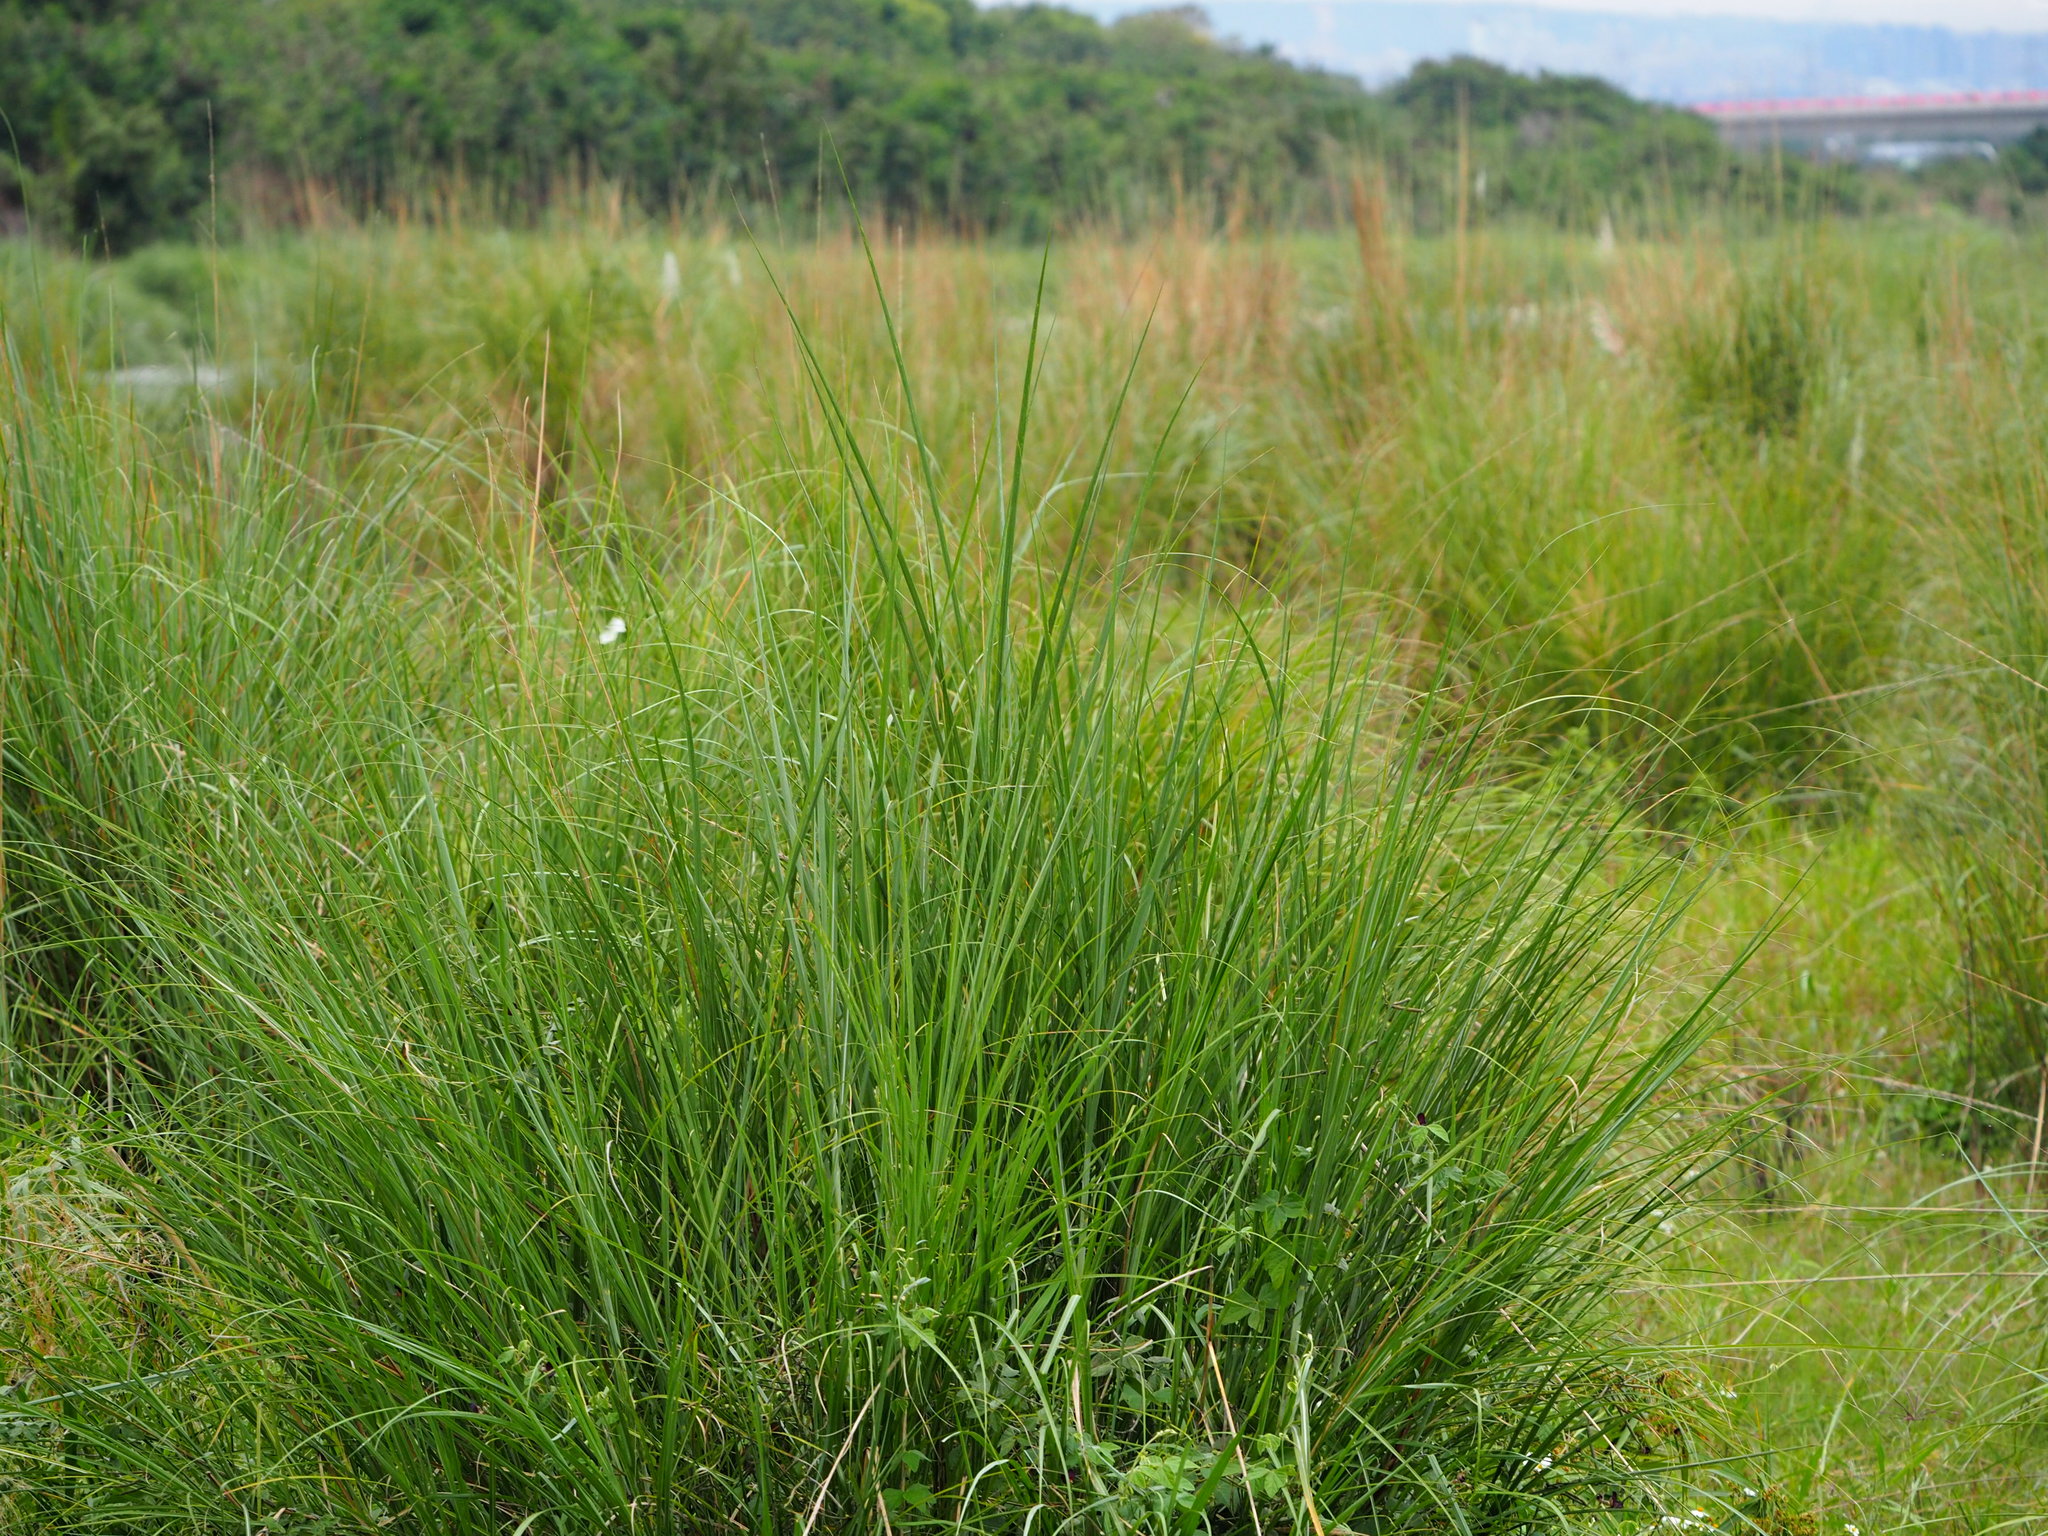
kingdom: Plantae
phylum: Tracheophyta
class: Liliopsida
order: Poales
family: Poaceae
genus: Saccharum
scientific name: Saccharum spontaneum
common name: Wild sugarcane
